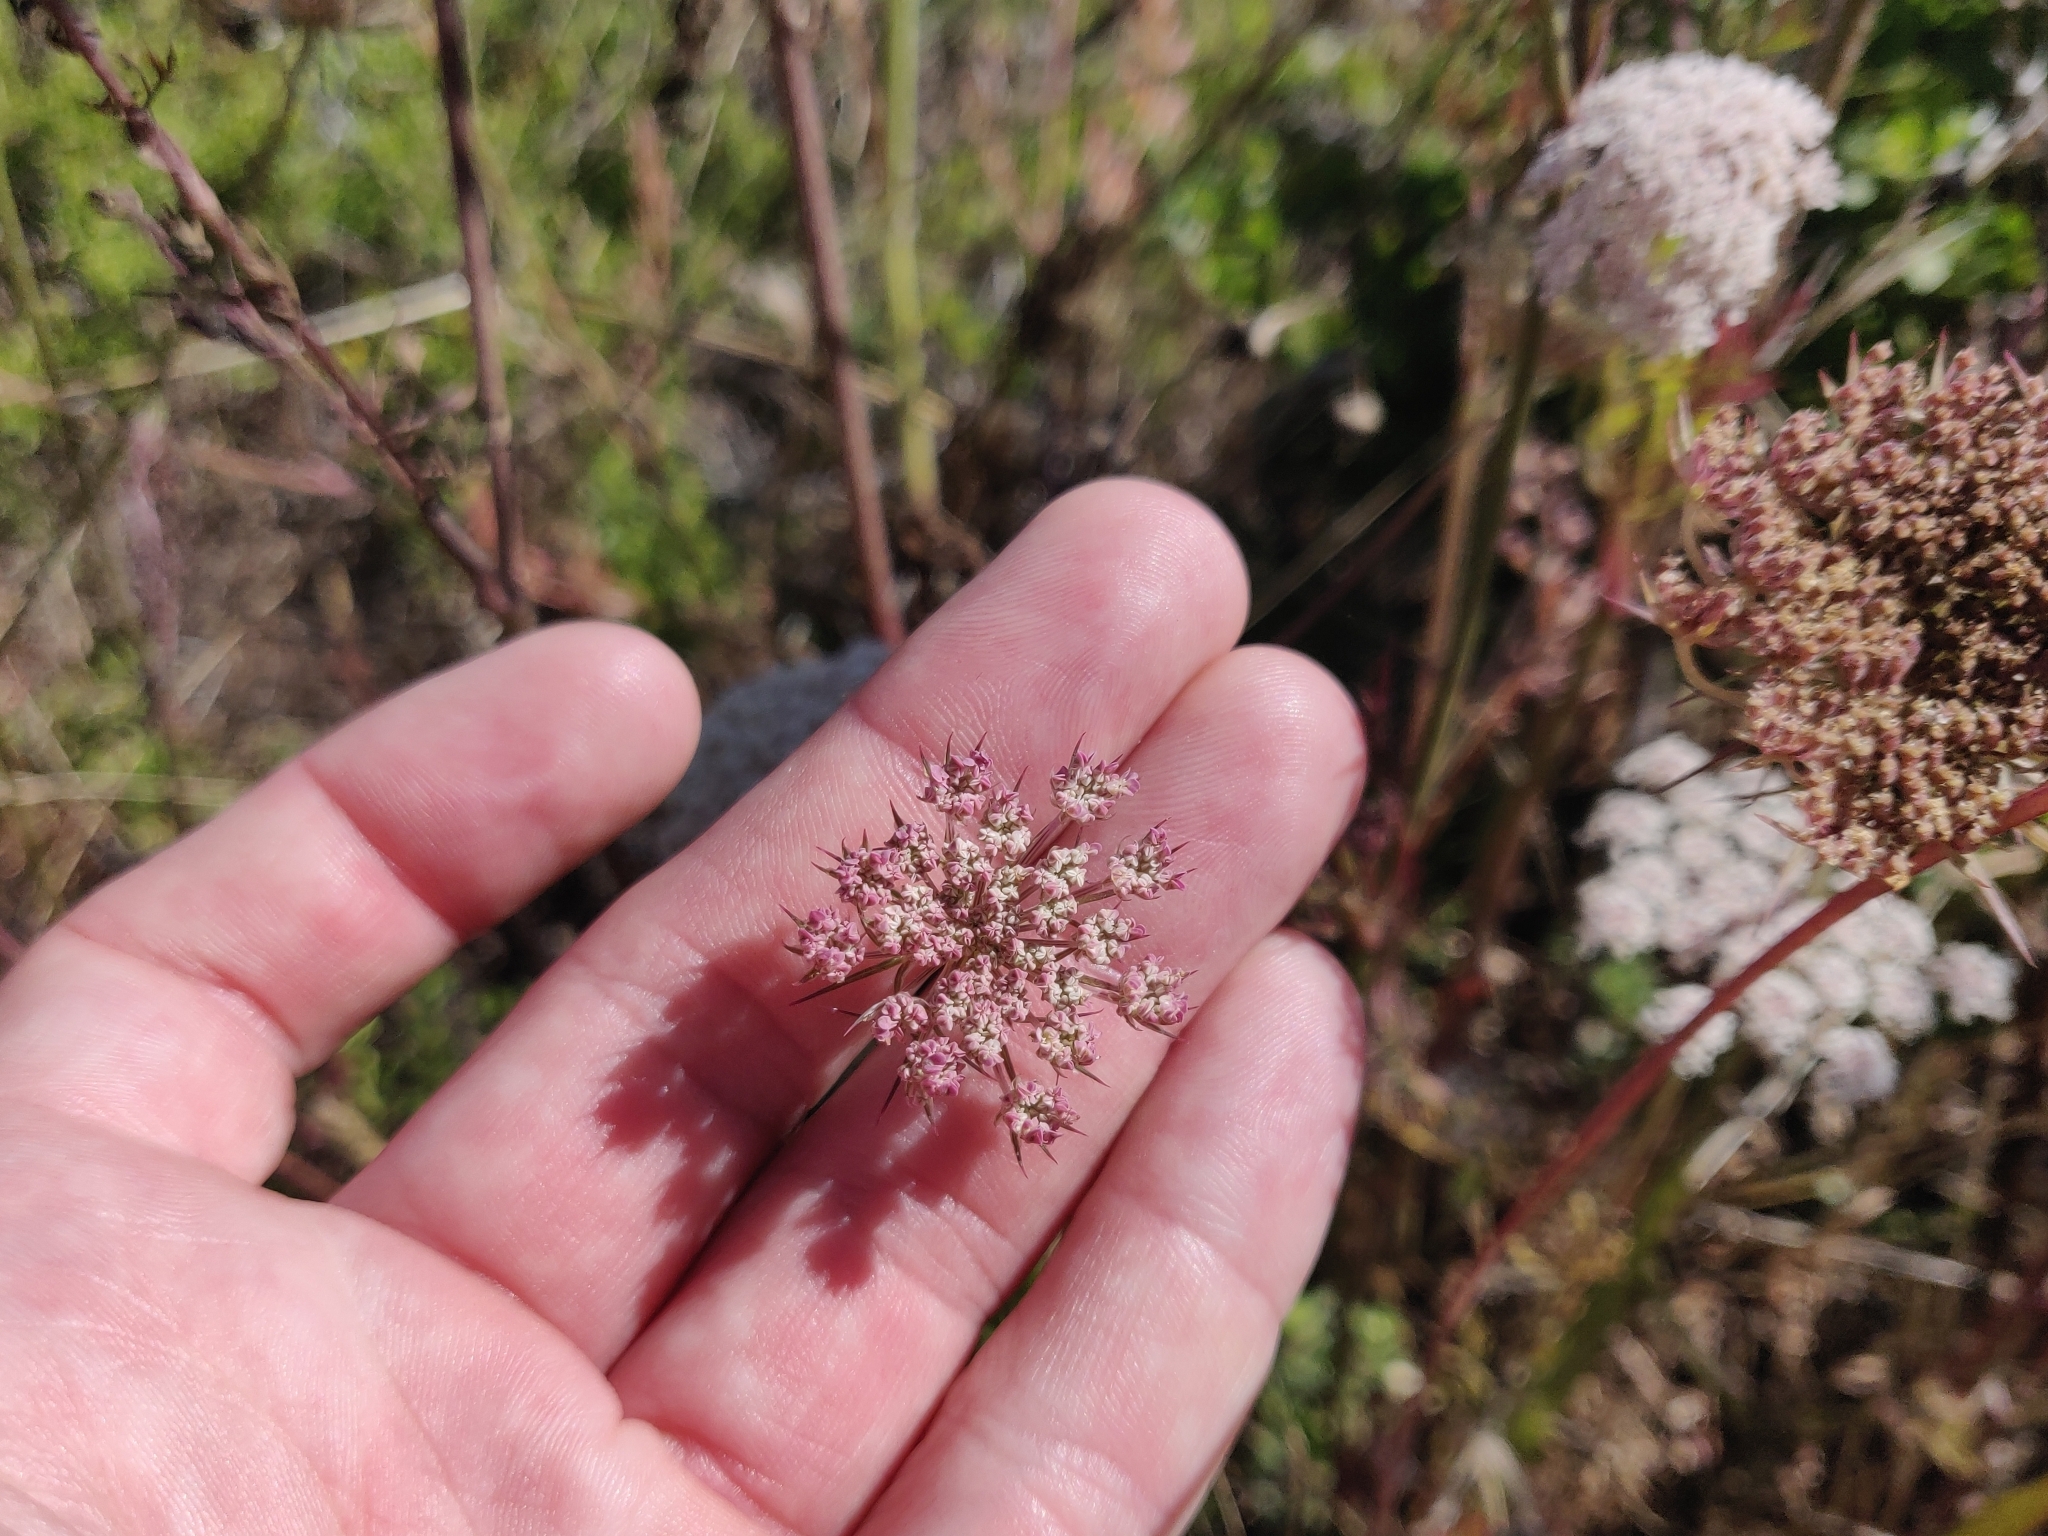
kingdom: Plantae
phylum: Tracheophyta
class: Magnoliopsida
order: Apiales
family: Apiaceae
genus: Daucus
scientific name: Daucus carota
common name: Wild carrot
